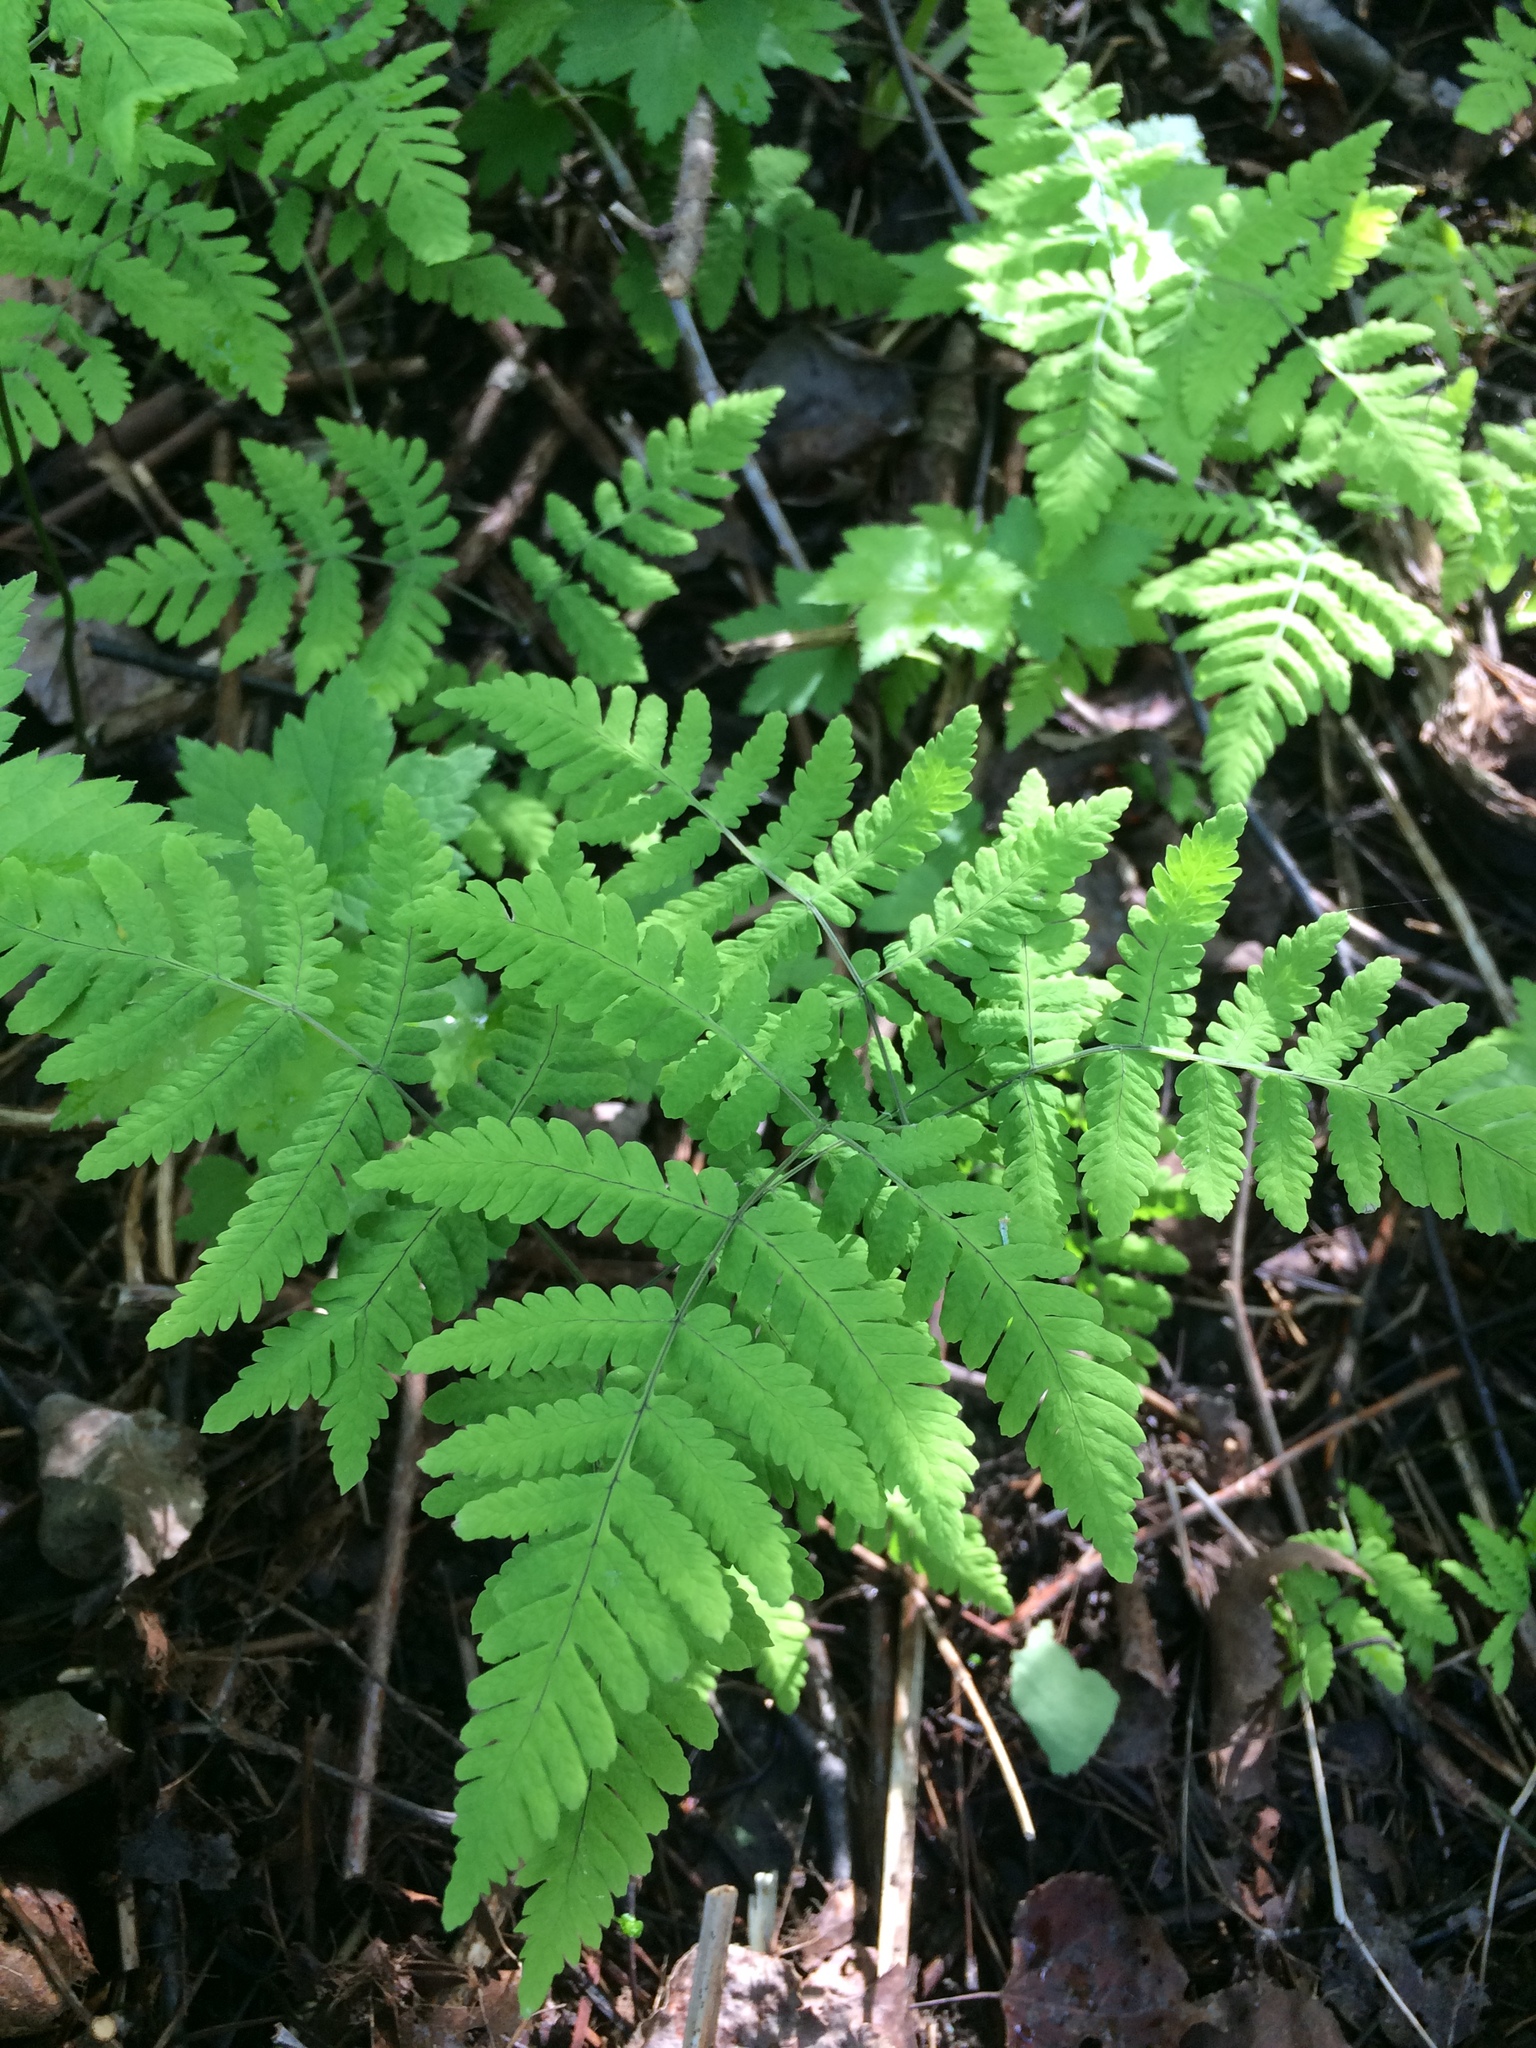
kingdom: Plantae
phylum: Tracheophyta
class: Polypodiopsida
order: Polypodiales
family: Cystopteridaceae
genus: Gymnocarpium
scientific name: Gymnocarpium dryopteris
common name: Oak fern
